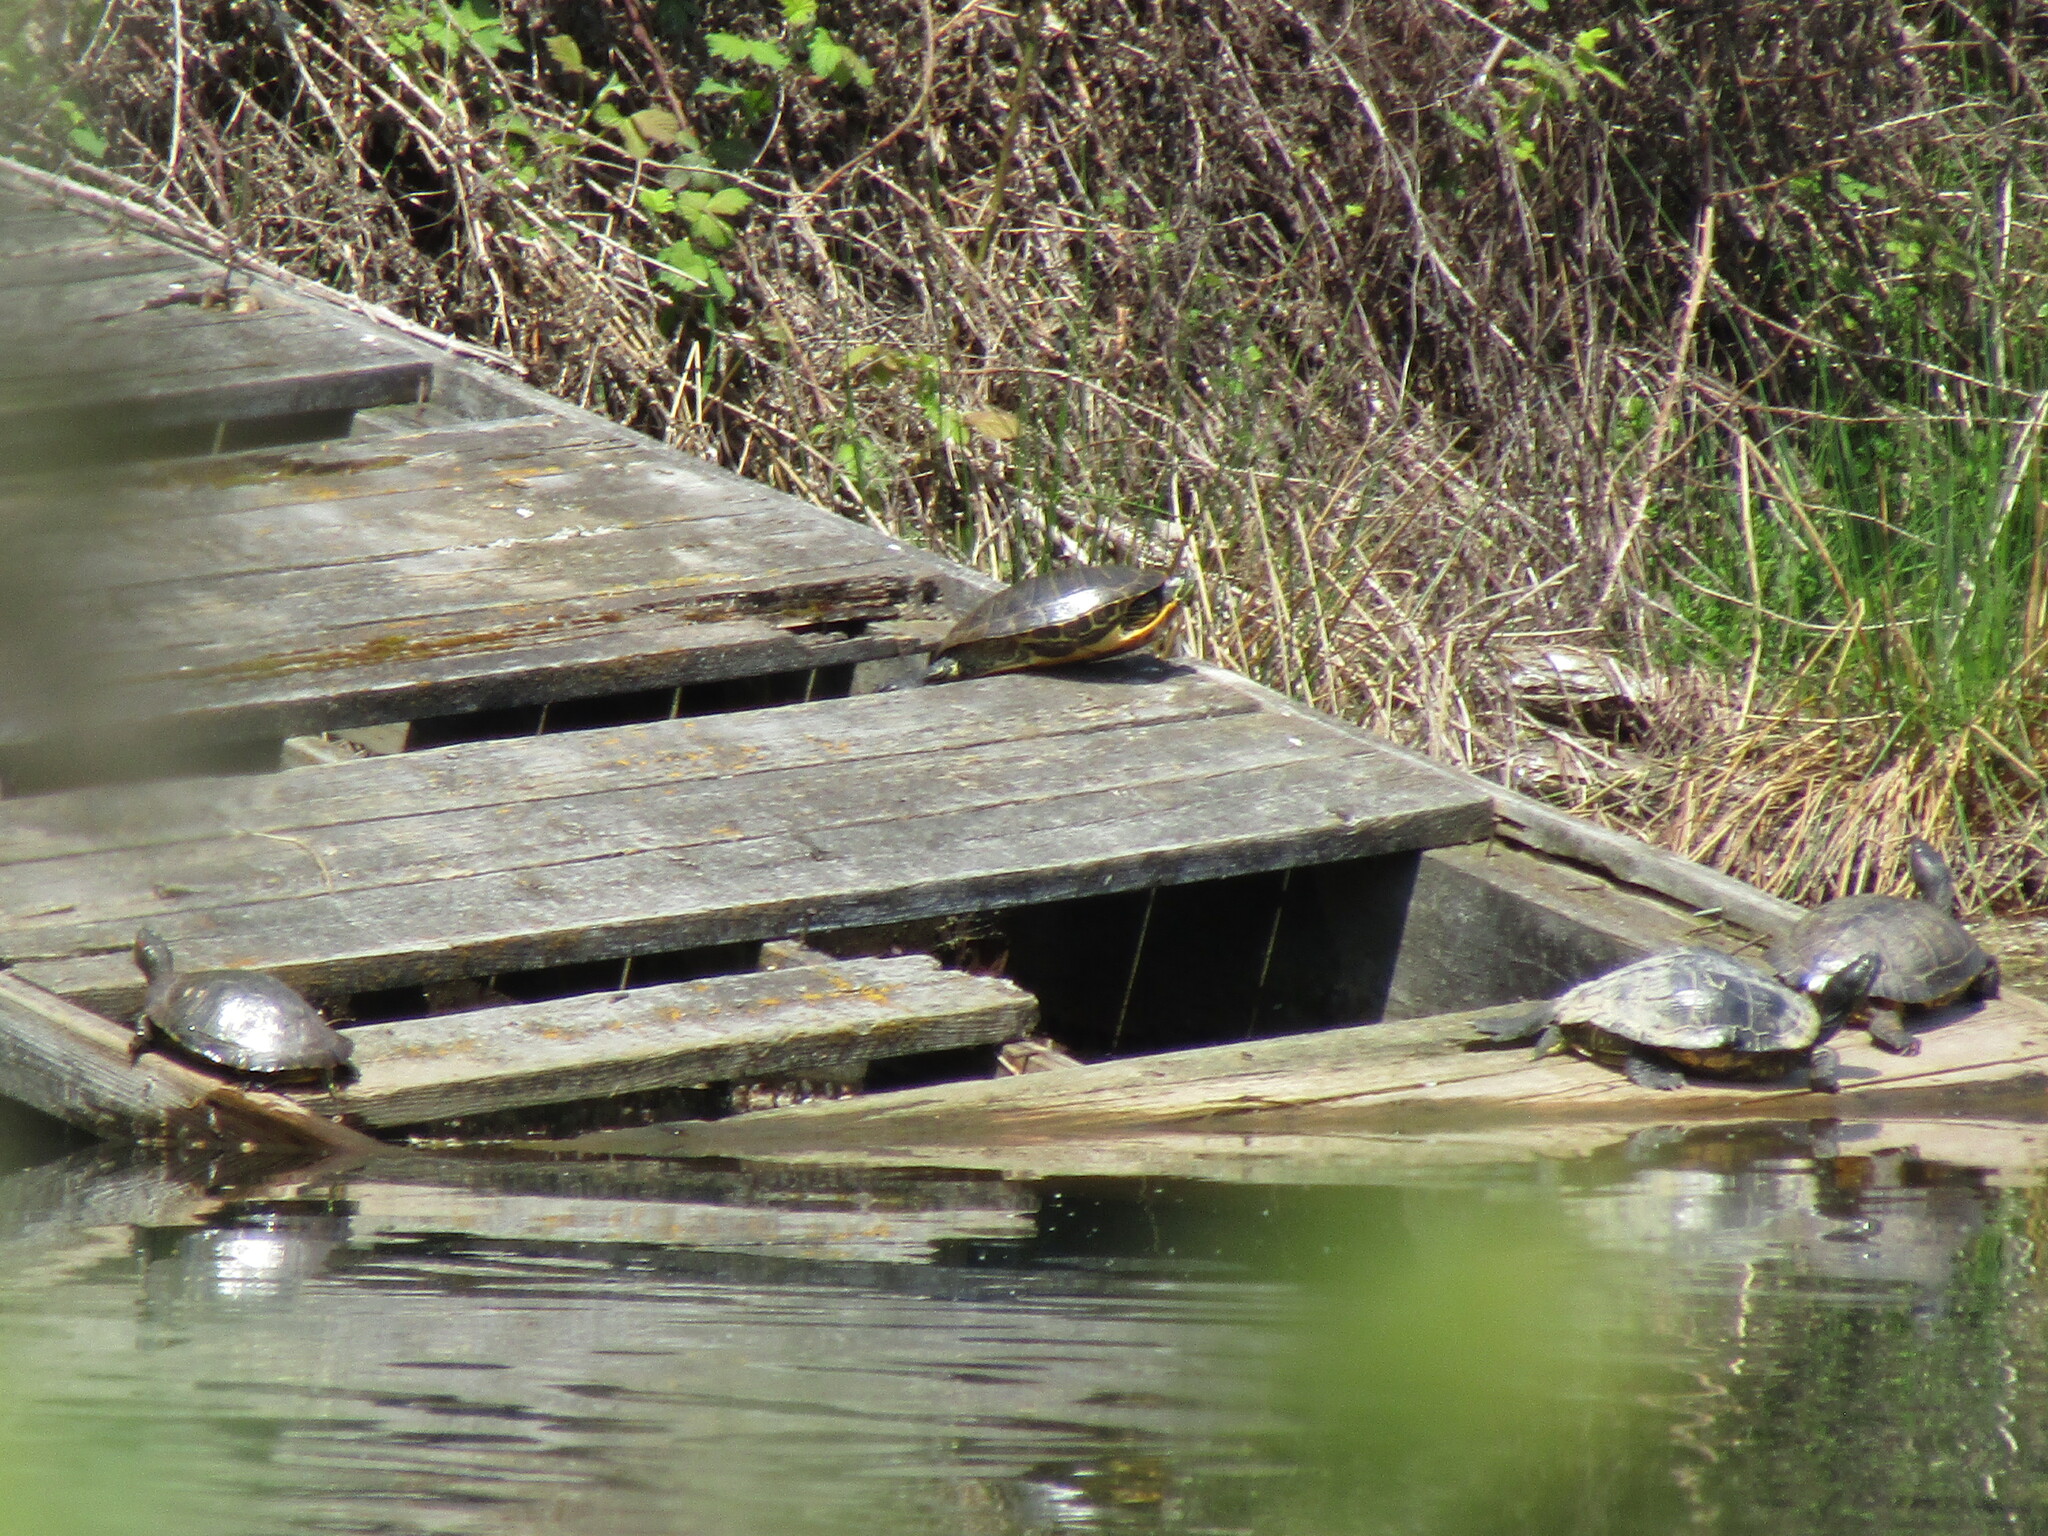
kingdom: Animalia
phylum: Chordata
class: Testudines
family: Emydidae
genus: Trachemys
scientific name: Trachemys scripta
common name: Slider
